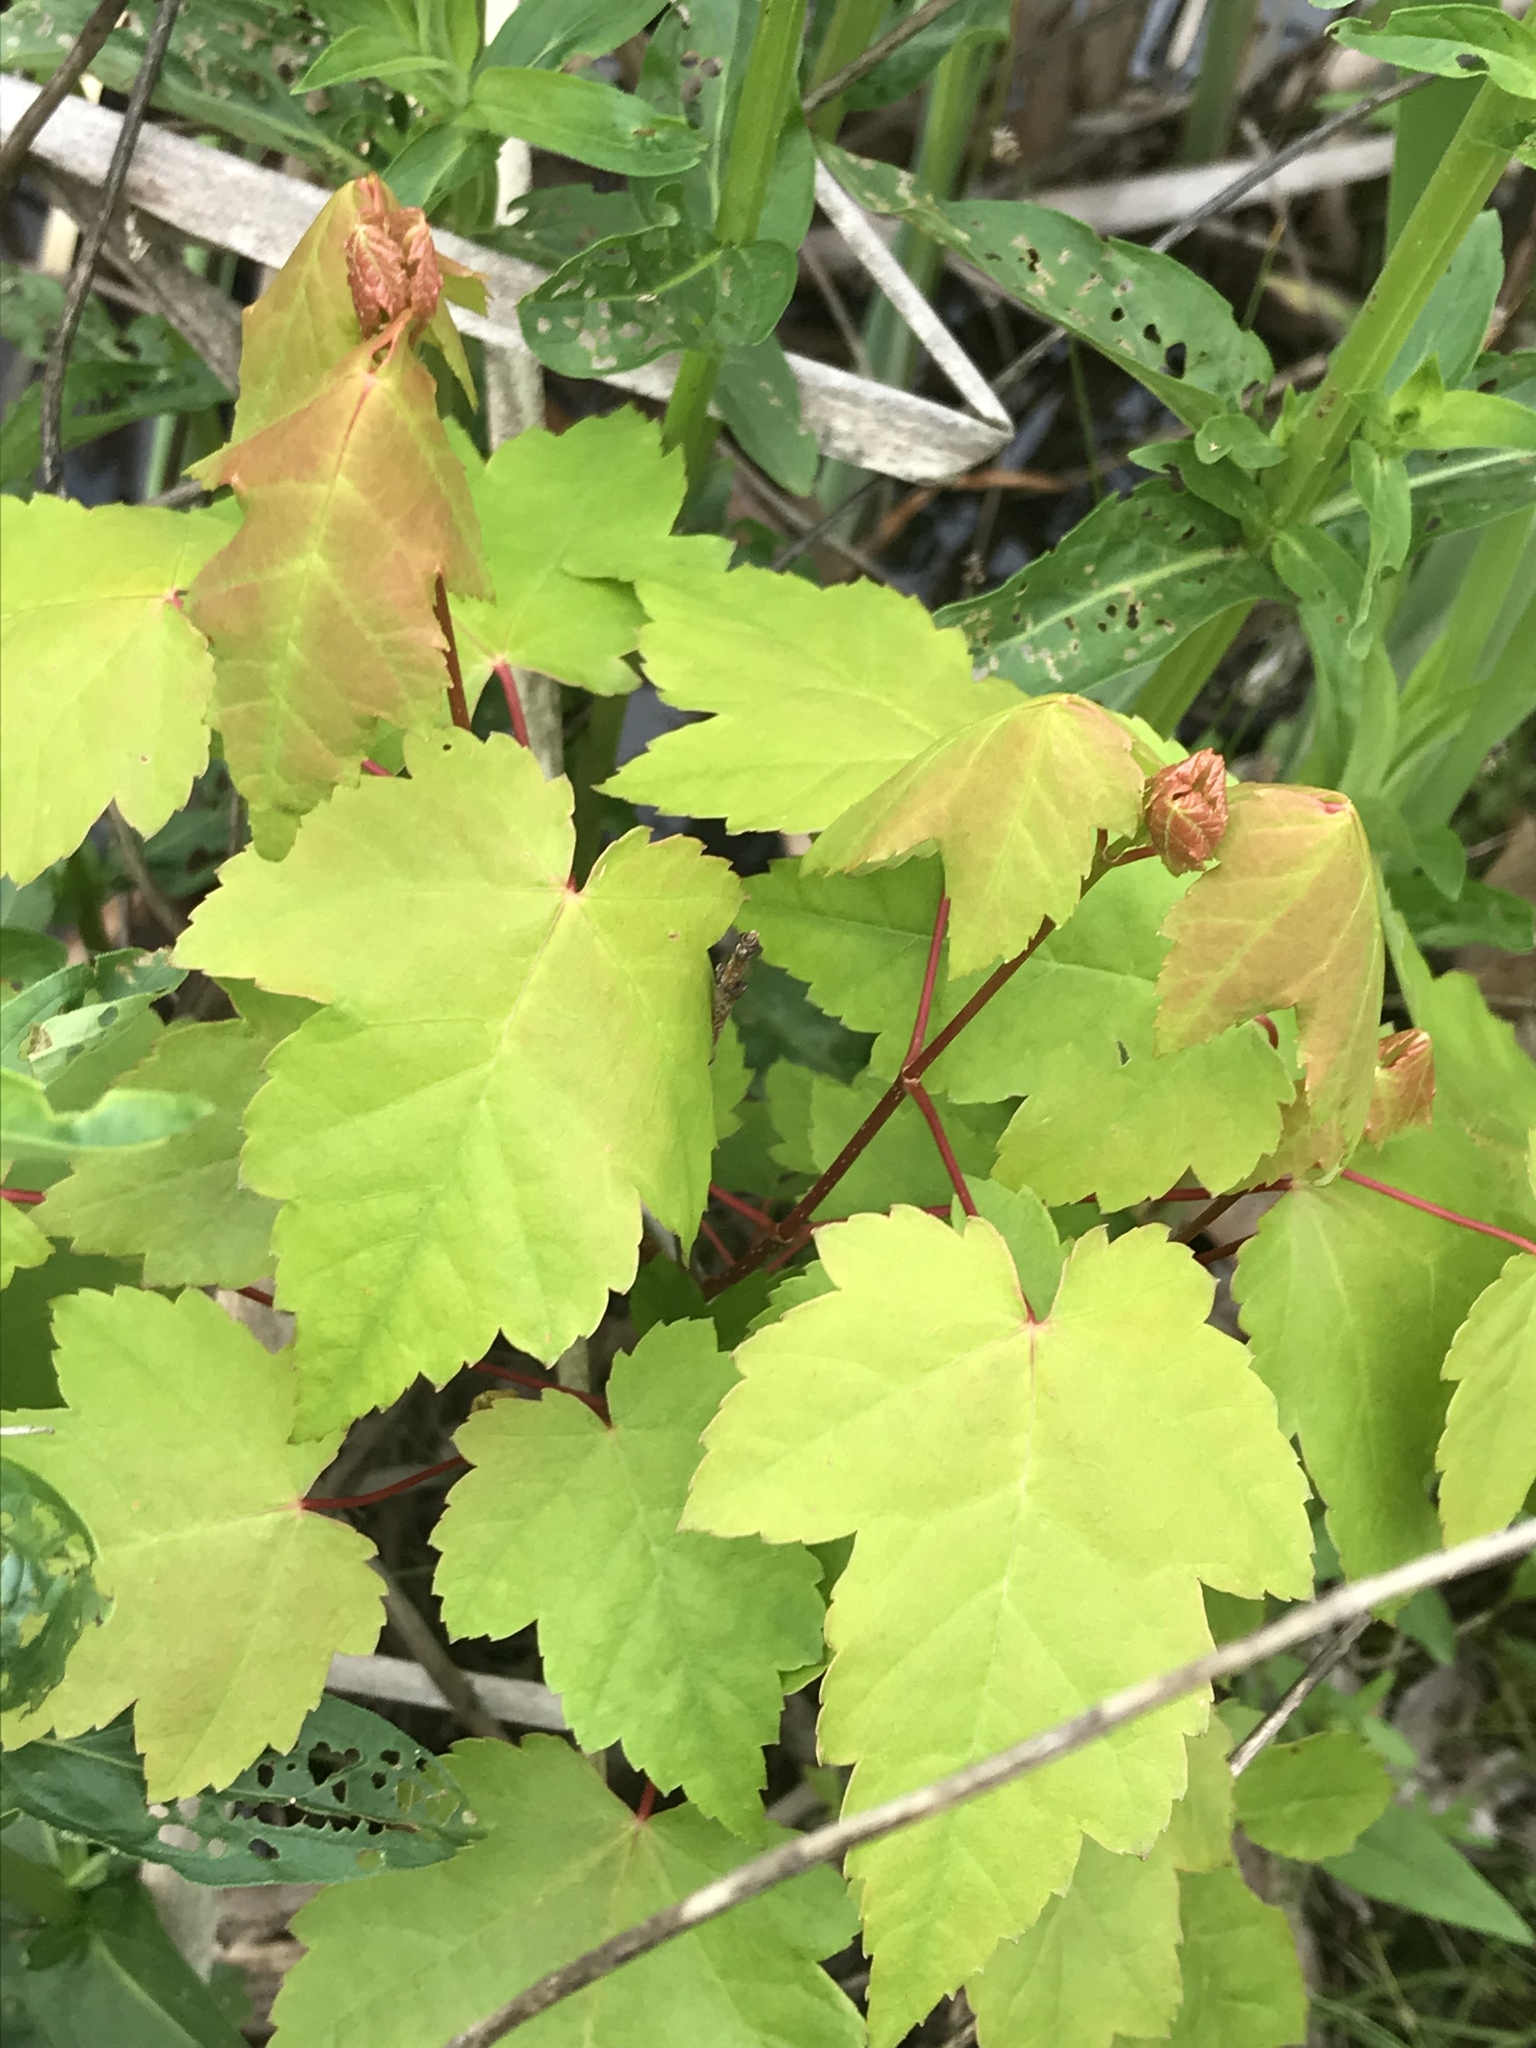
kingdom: Plantae
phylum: Tracheophyta
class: Magnoliopsida
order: Sapindales
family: Sapindaceae
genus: Acer
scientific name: Acer rubrum
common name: Red maple
